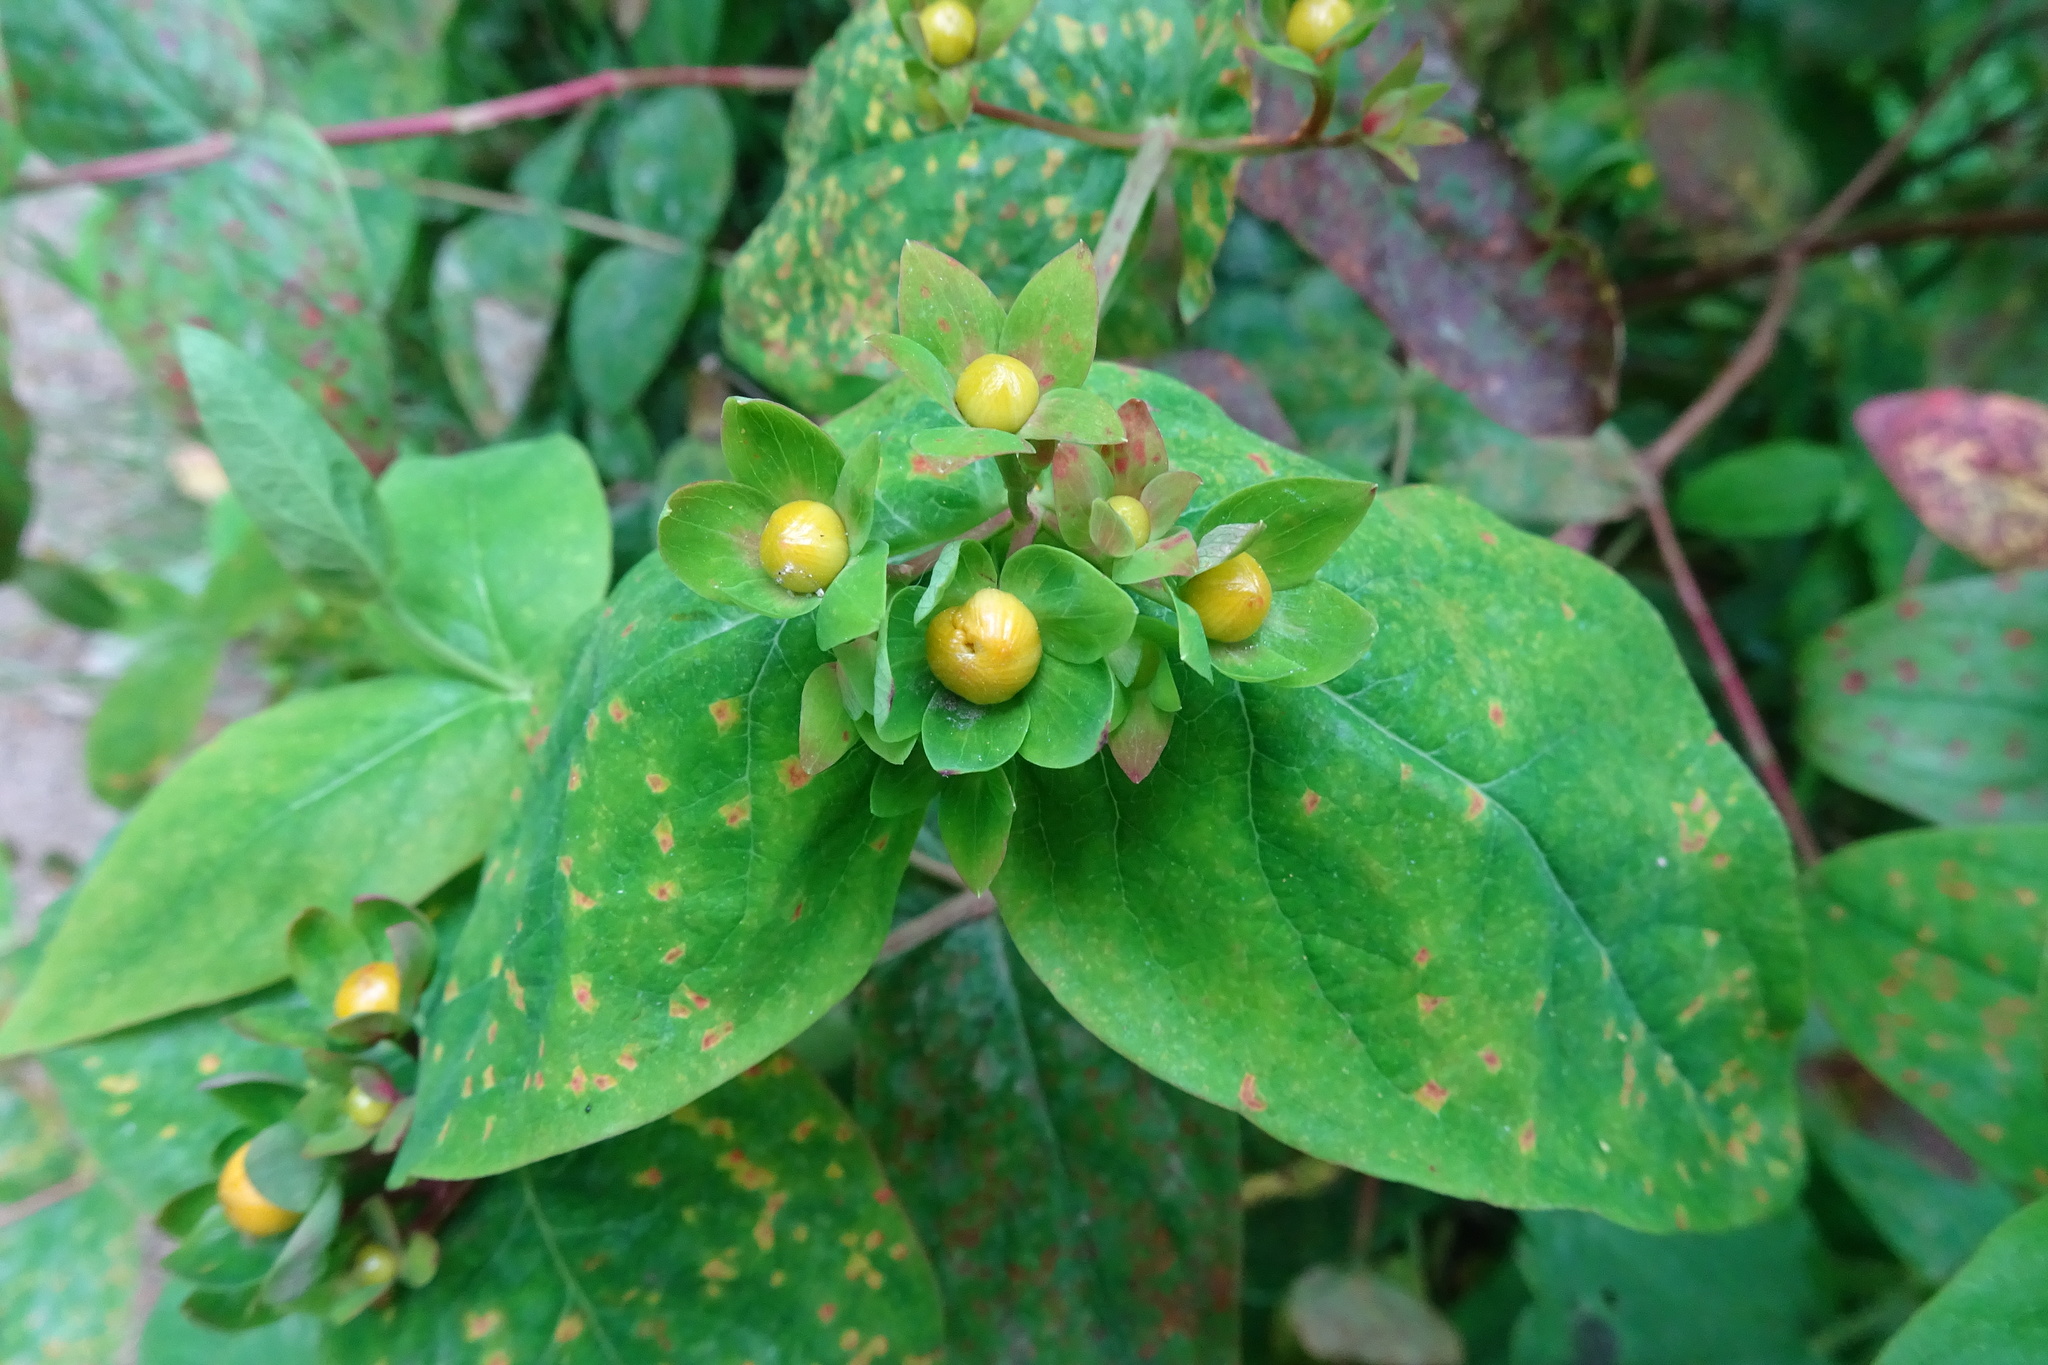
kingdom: Plantae
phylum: Tracheophyta
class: Magnoliopsida
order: Malpighiales
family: Hypericaceae
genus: Hypericum
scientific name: Hypericum androsaemum
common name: Sweet-amber
